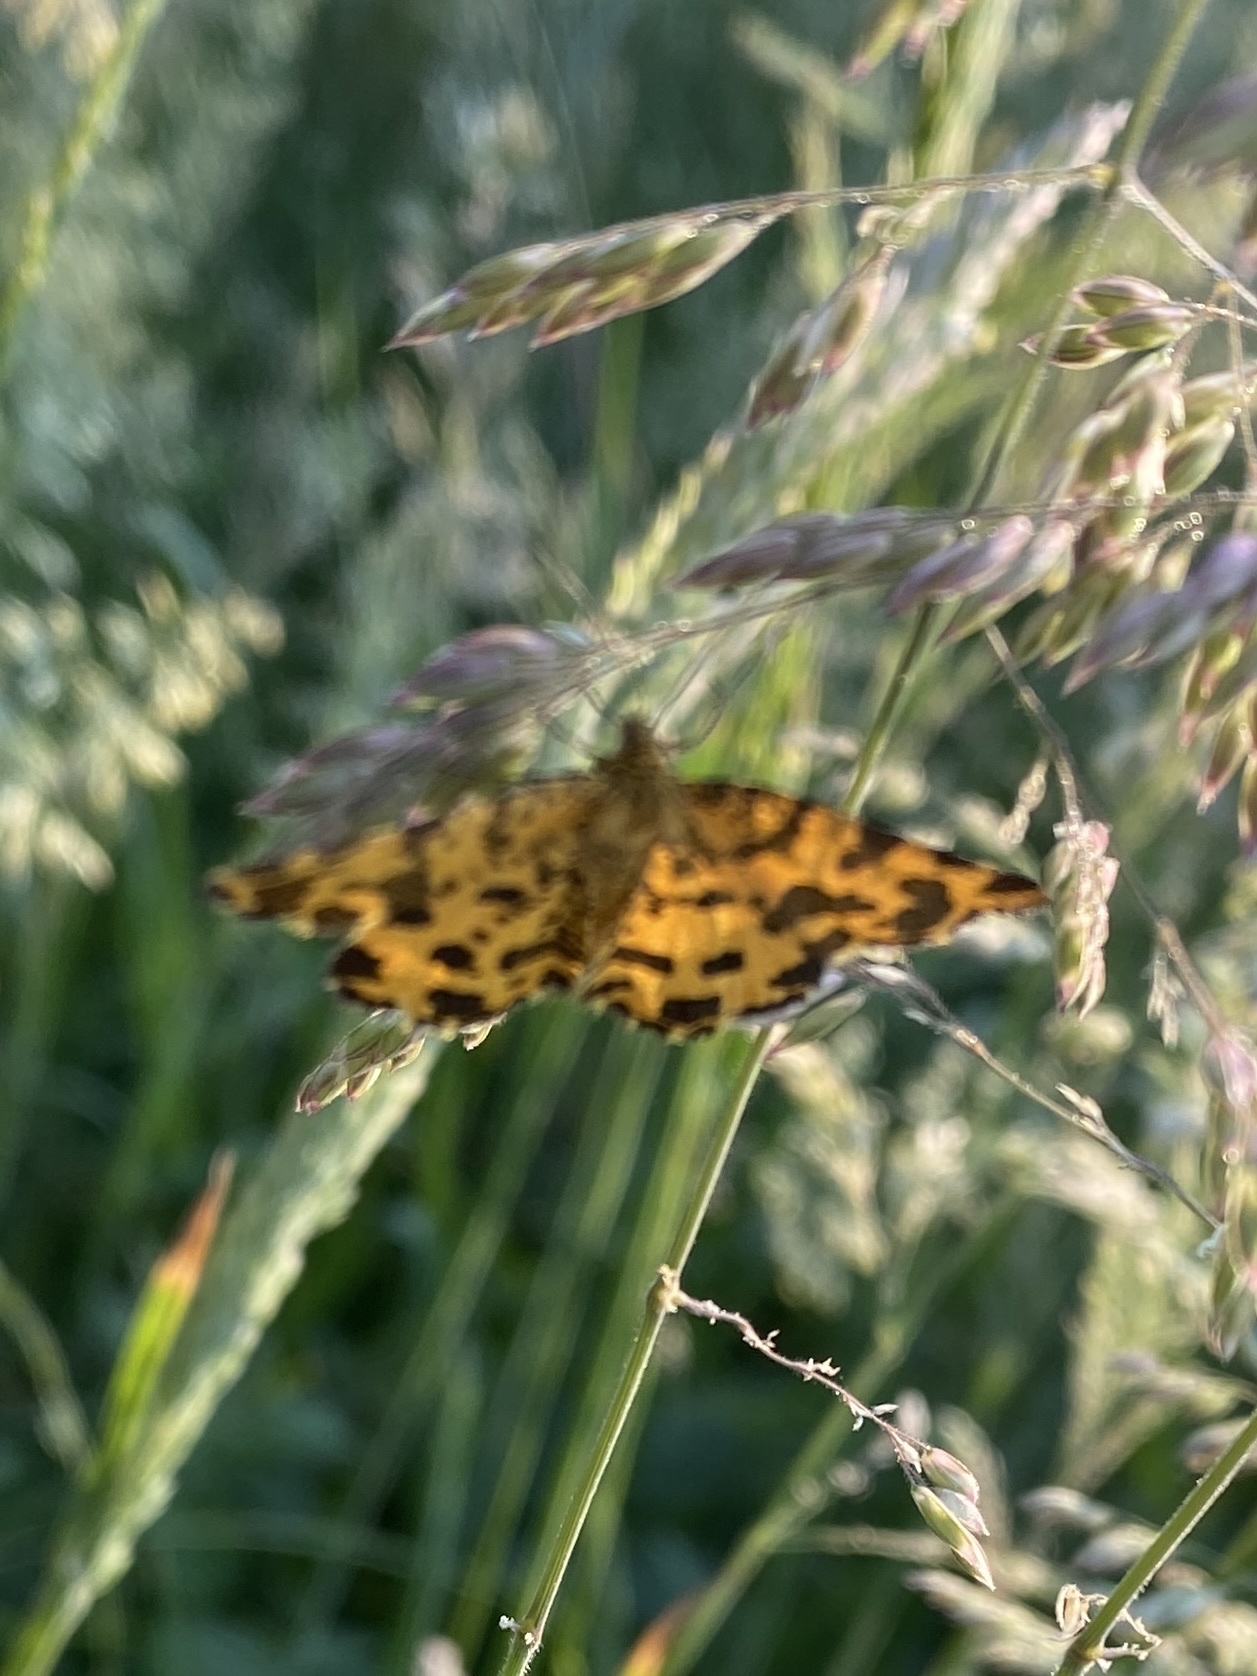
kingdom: Animalia
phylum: Arthropoda
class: Insecta
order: Lepidoptera
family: Geometridae
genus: Pseudopanthera
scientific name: Pseudopanthera macularia
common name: Speckled yellow
